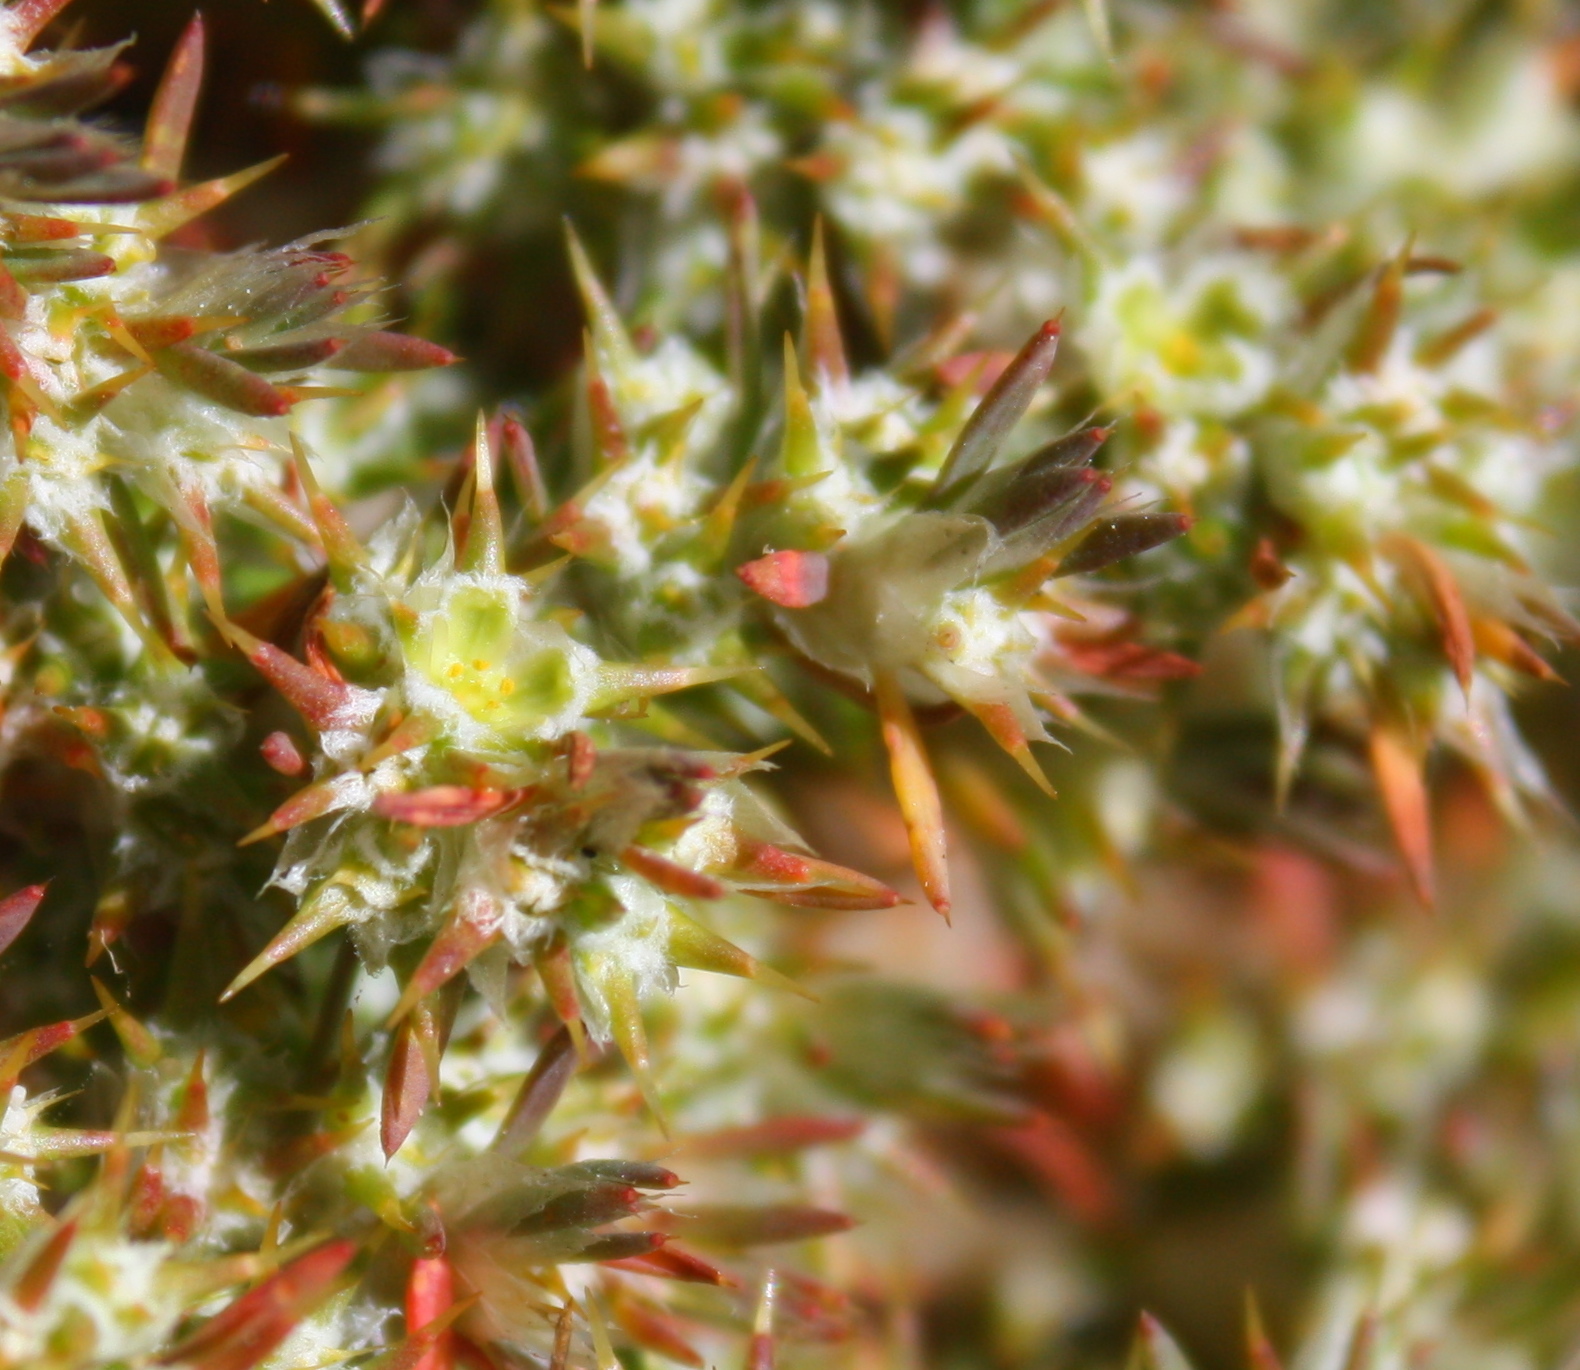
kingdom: Plantae
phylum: Tracheophyta
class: Magnoliopsida
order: Caryophyllales
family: Caryophyllaceae
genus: Cardionema
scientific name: Cardionema ramosissima
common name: Sandcarpet
